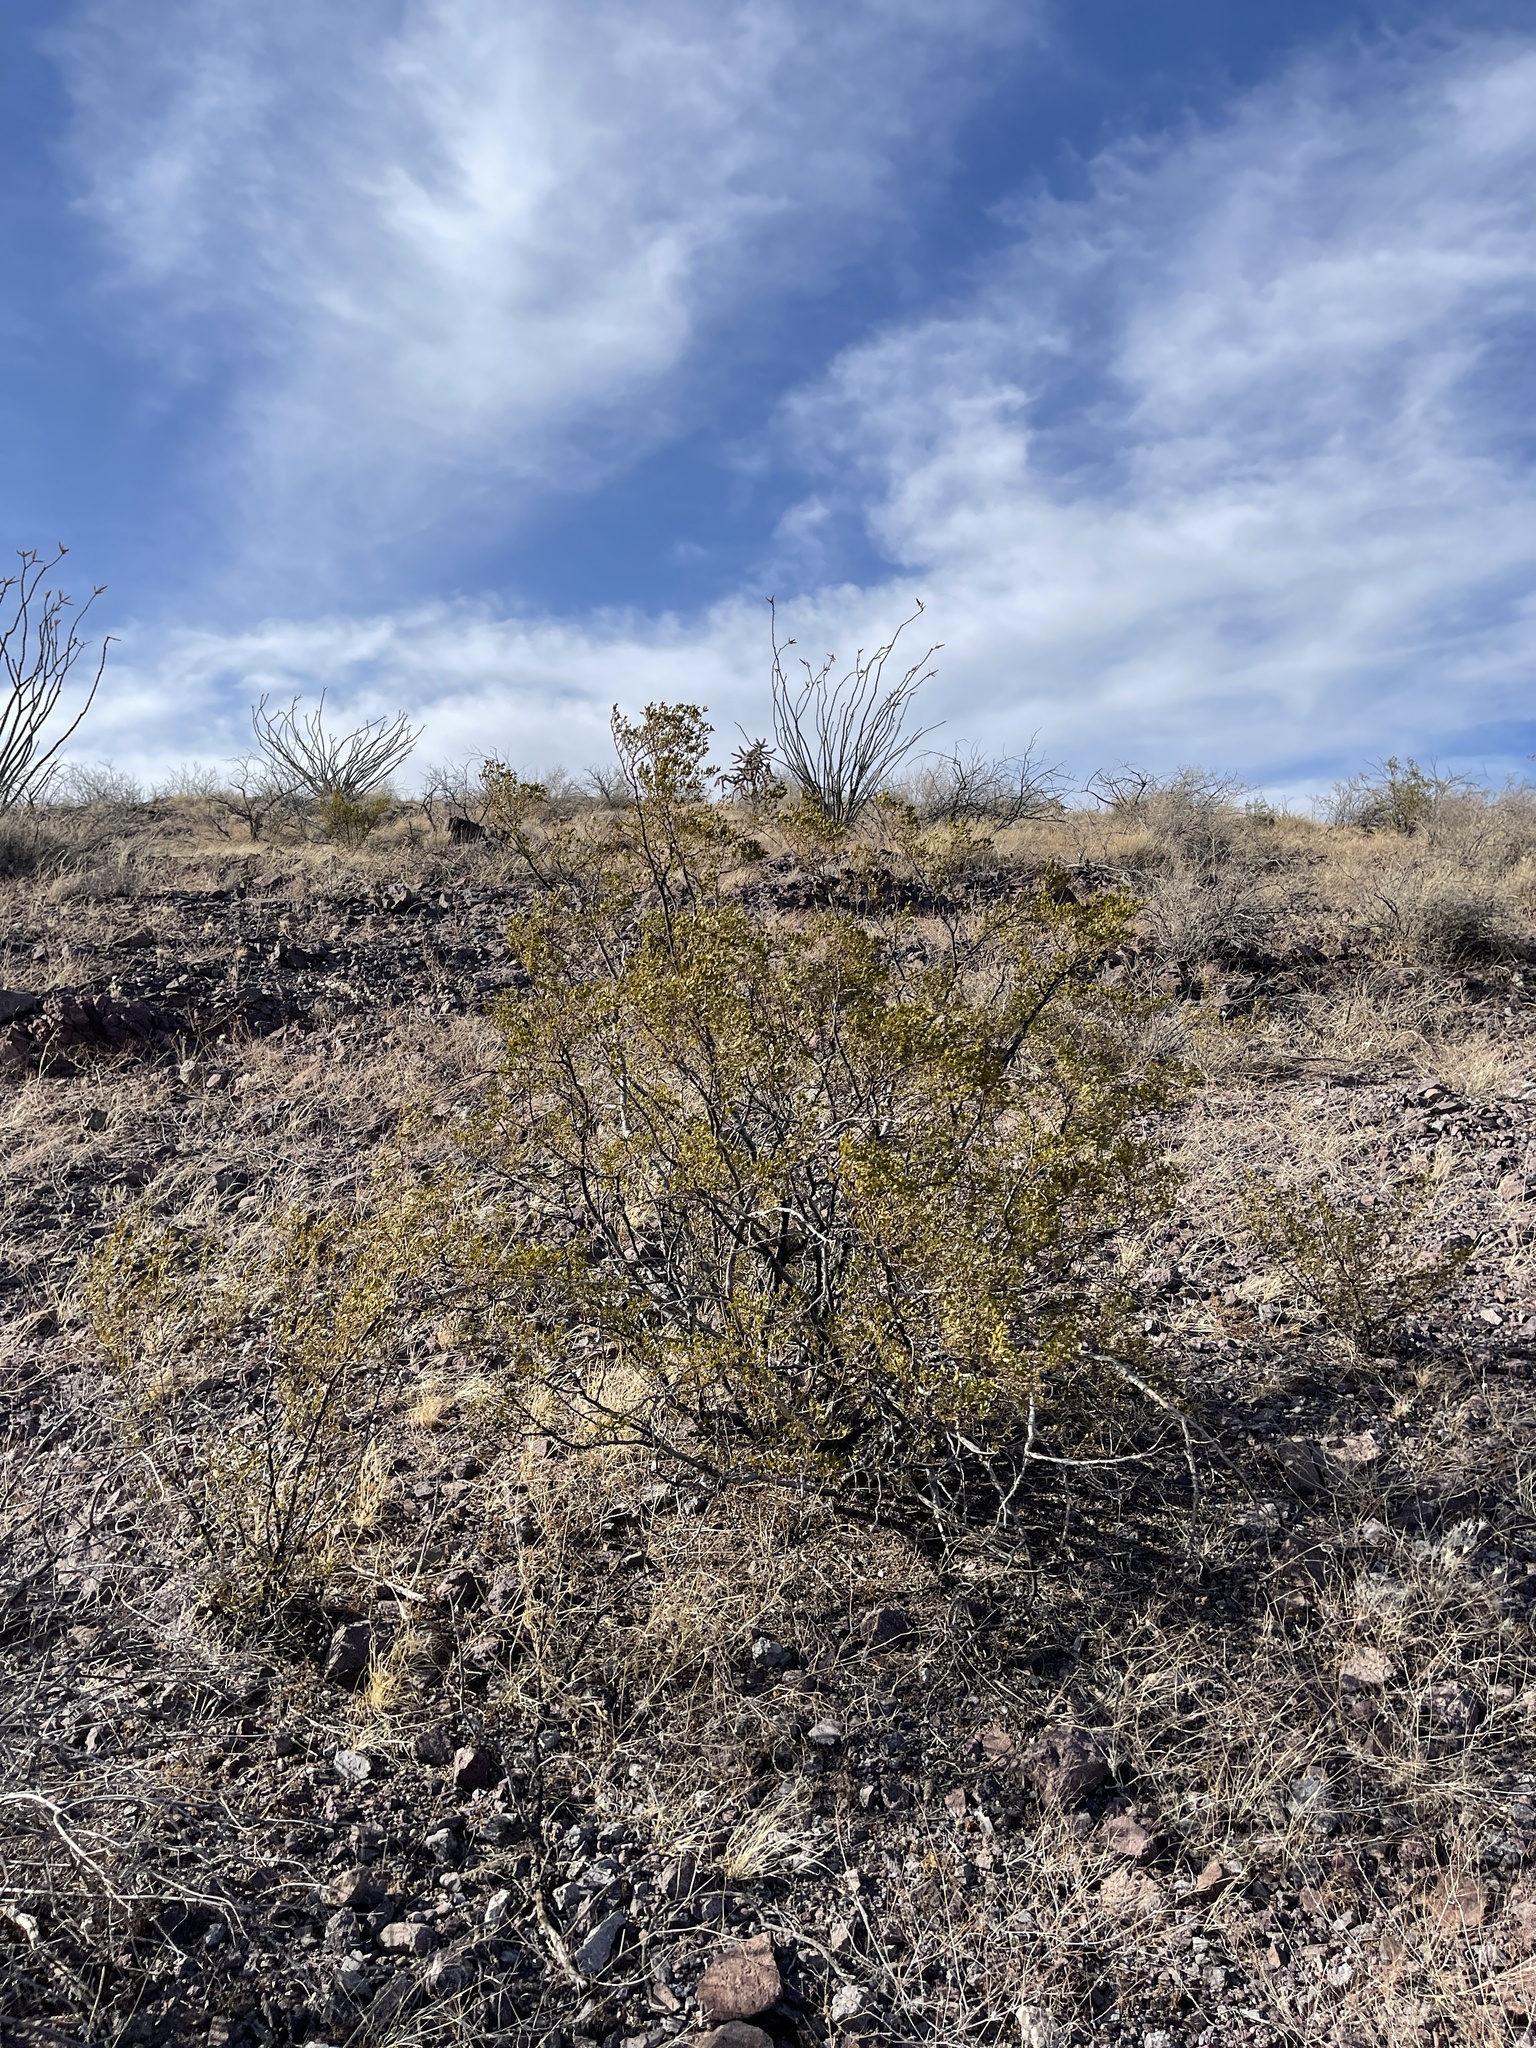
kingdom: Plantae
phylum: Tracheophyta
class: Magnoliopsida
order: Zygophyllales
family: Zygophyllaceae
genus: Larrea
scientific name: Larrea tridentata
